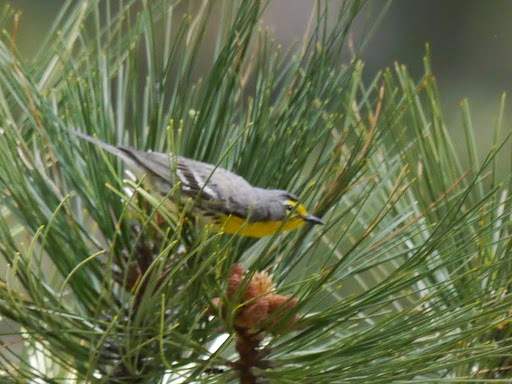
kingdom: Animalia
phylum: Chordata
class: Aves
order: Passeriformes
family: Parulidae
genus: Setophaga
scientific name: Setophaga graciae
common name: Grace's warbler
